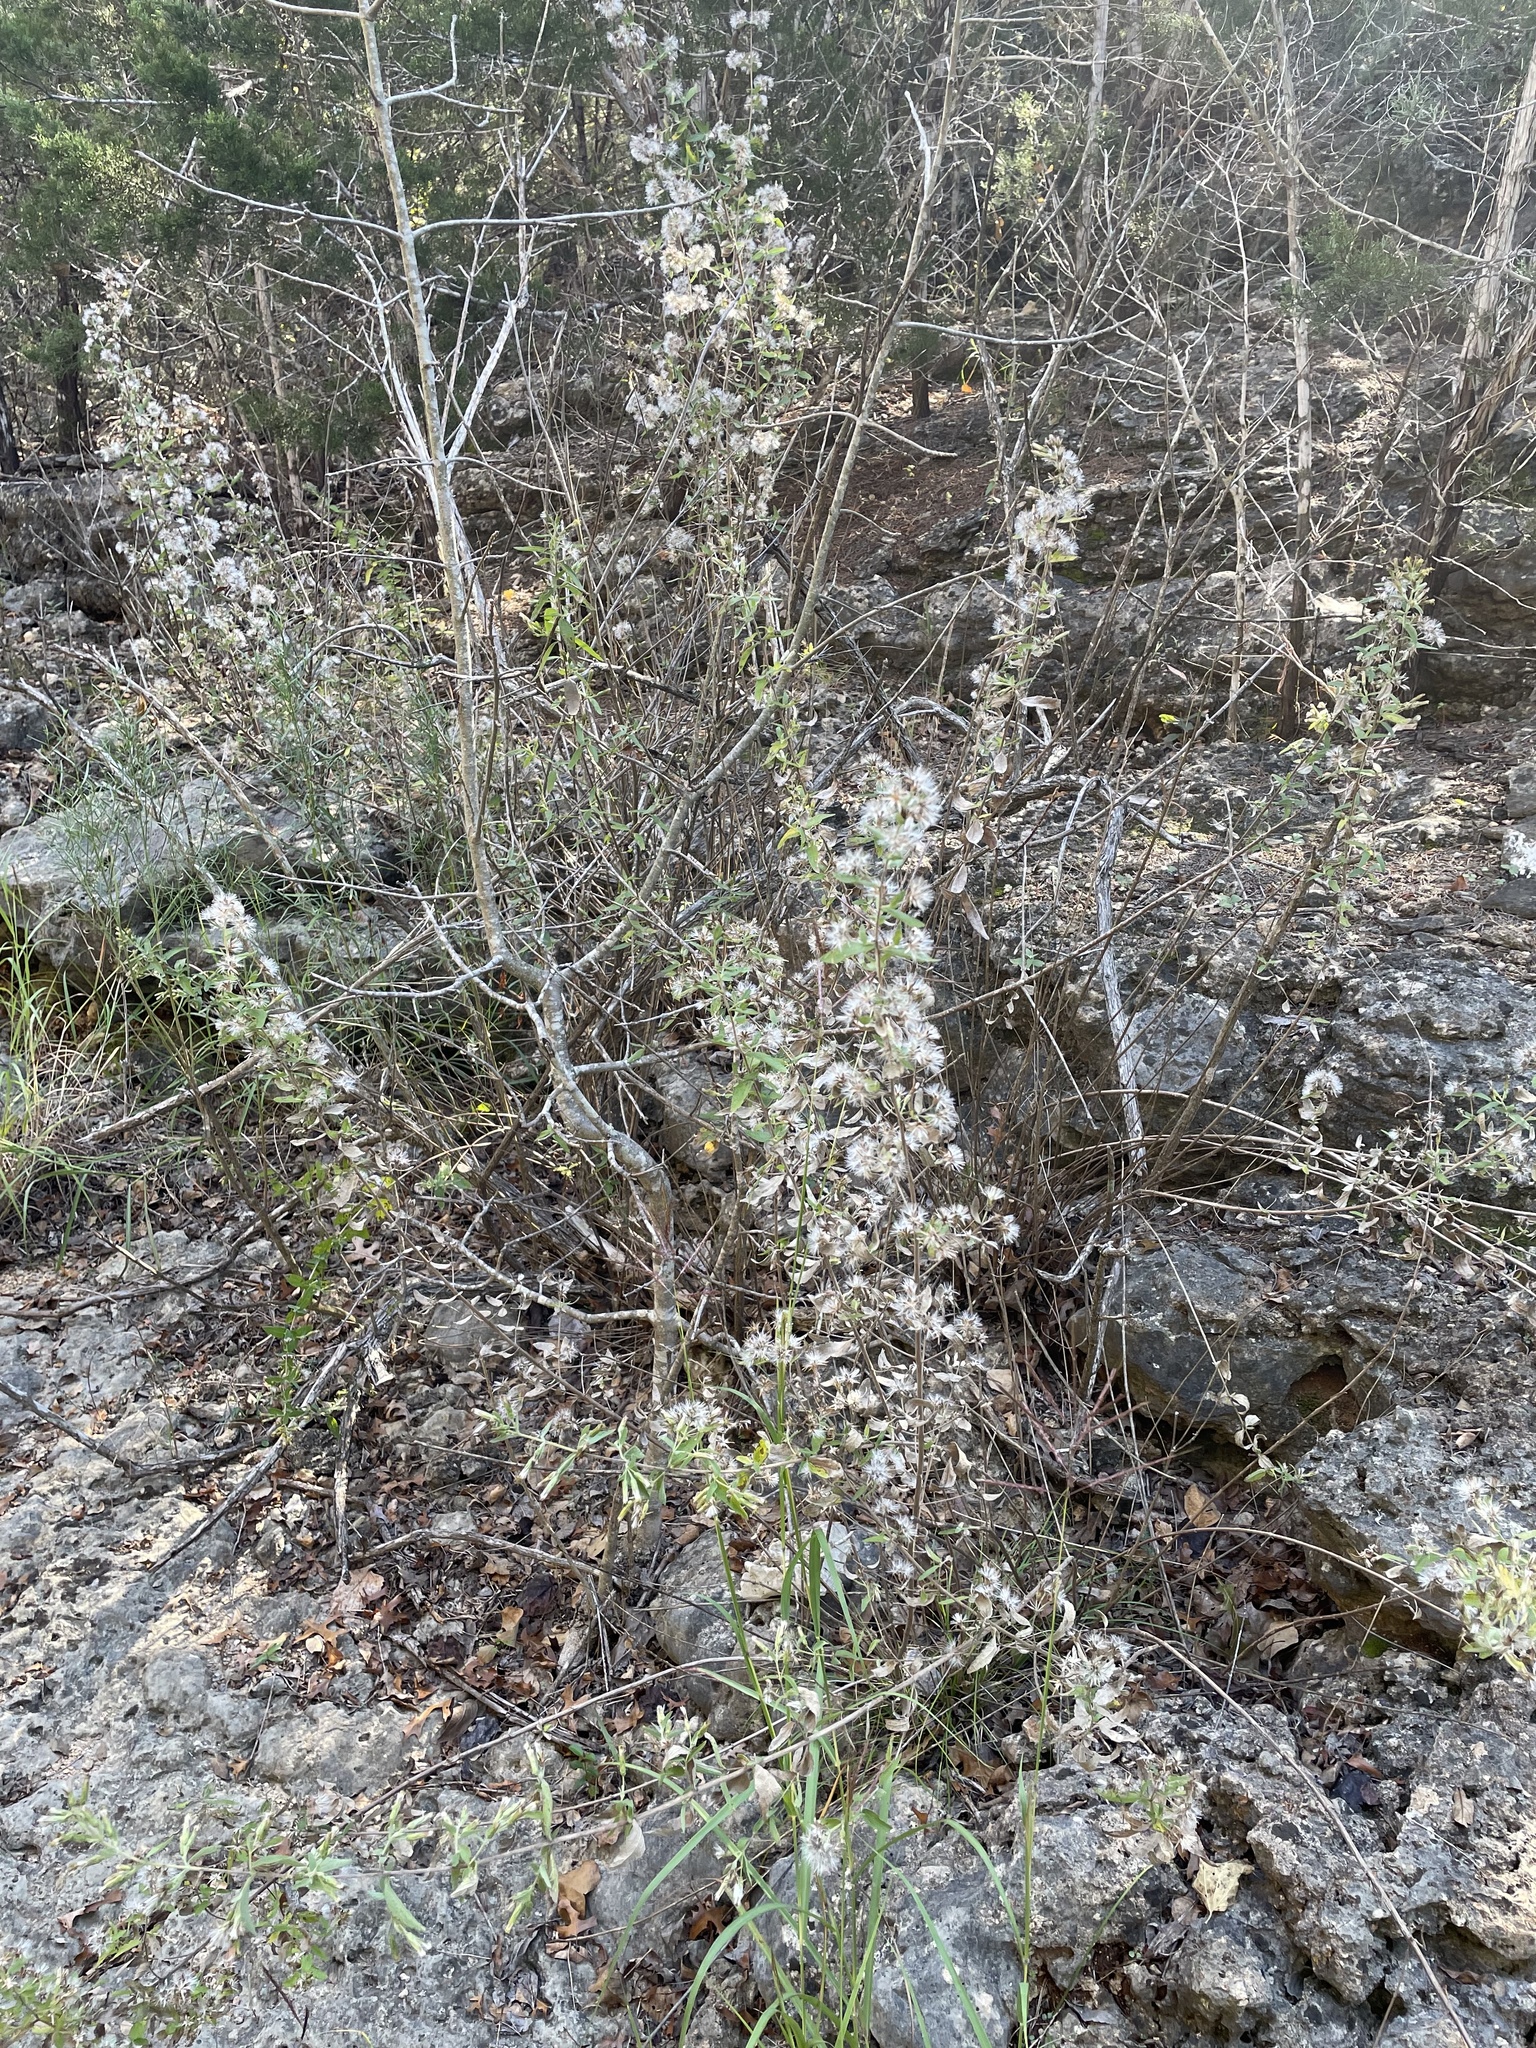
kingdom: Plantae
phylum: Tracheophyta
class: Magnoliopsida
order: Asterales
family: Asteraceae
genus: Brickellia
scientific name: Brickellia cylindracea
